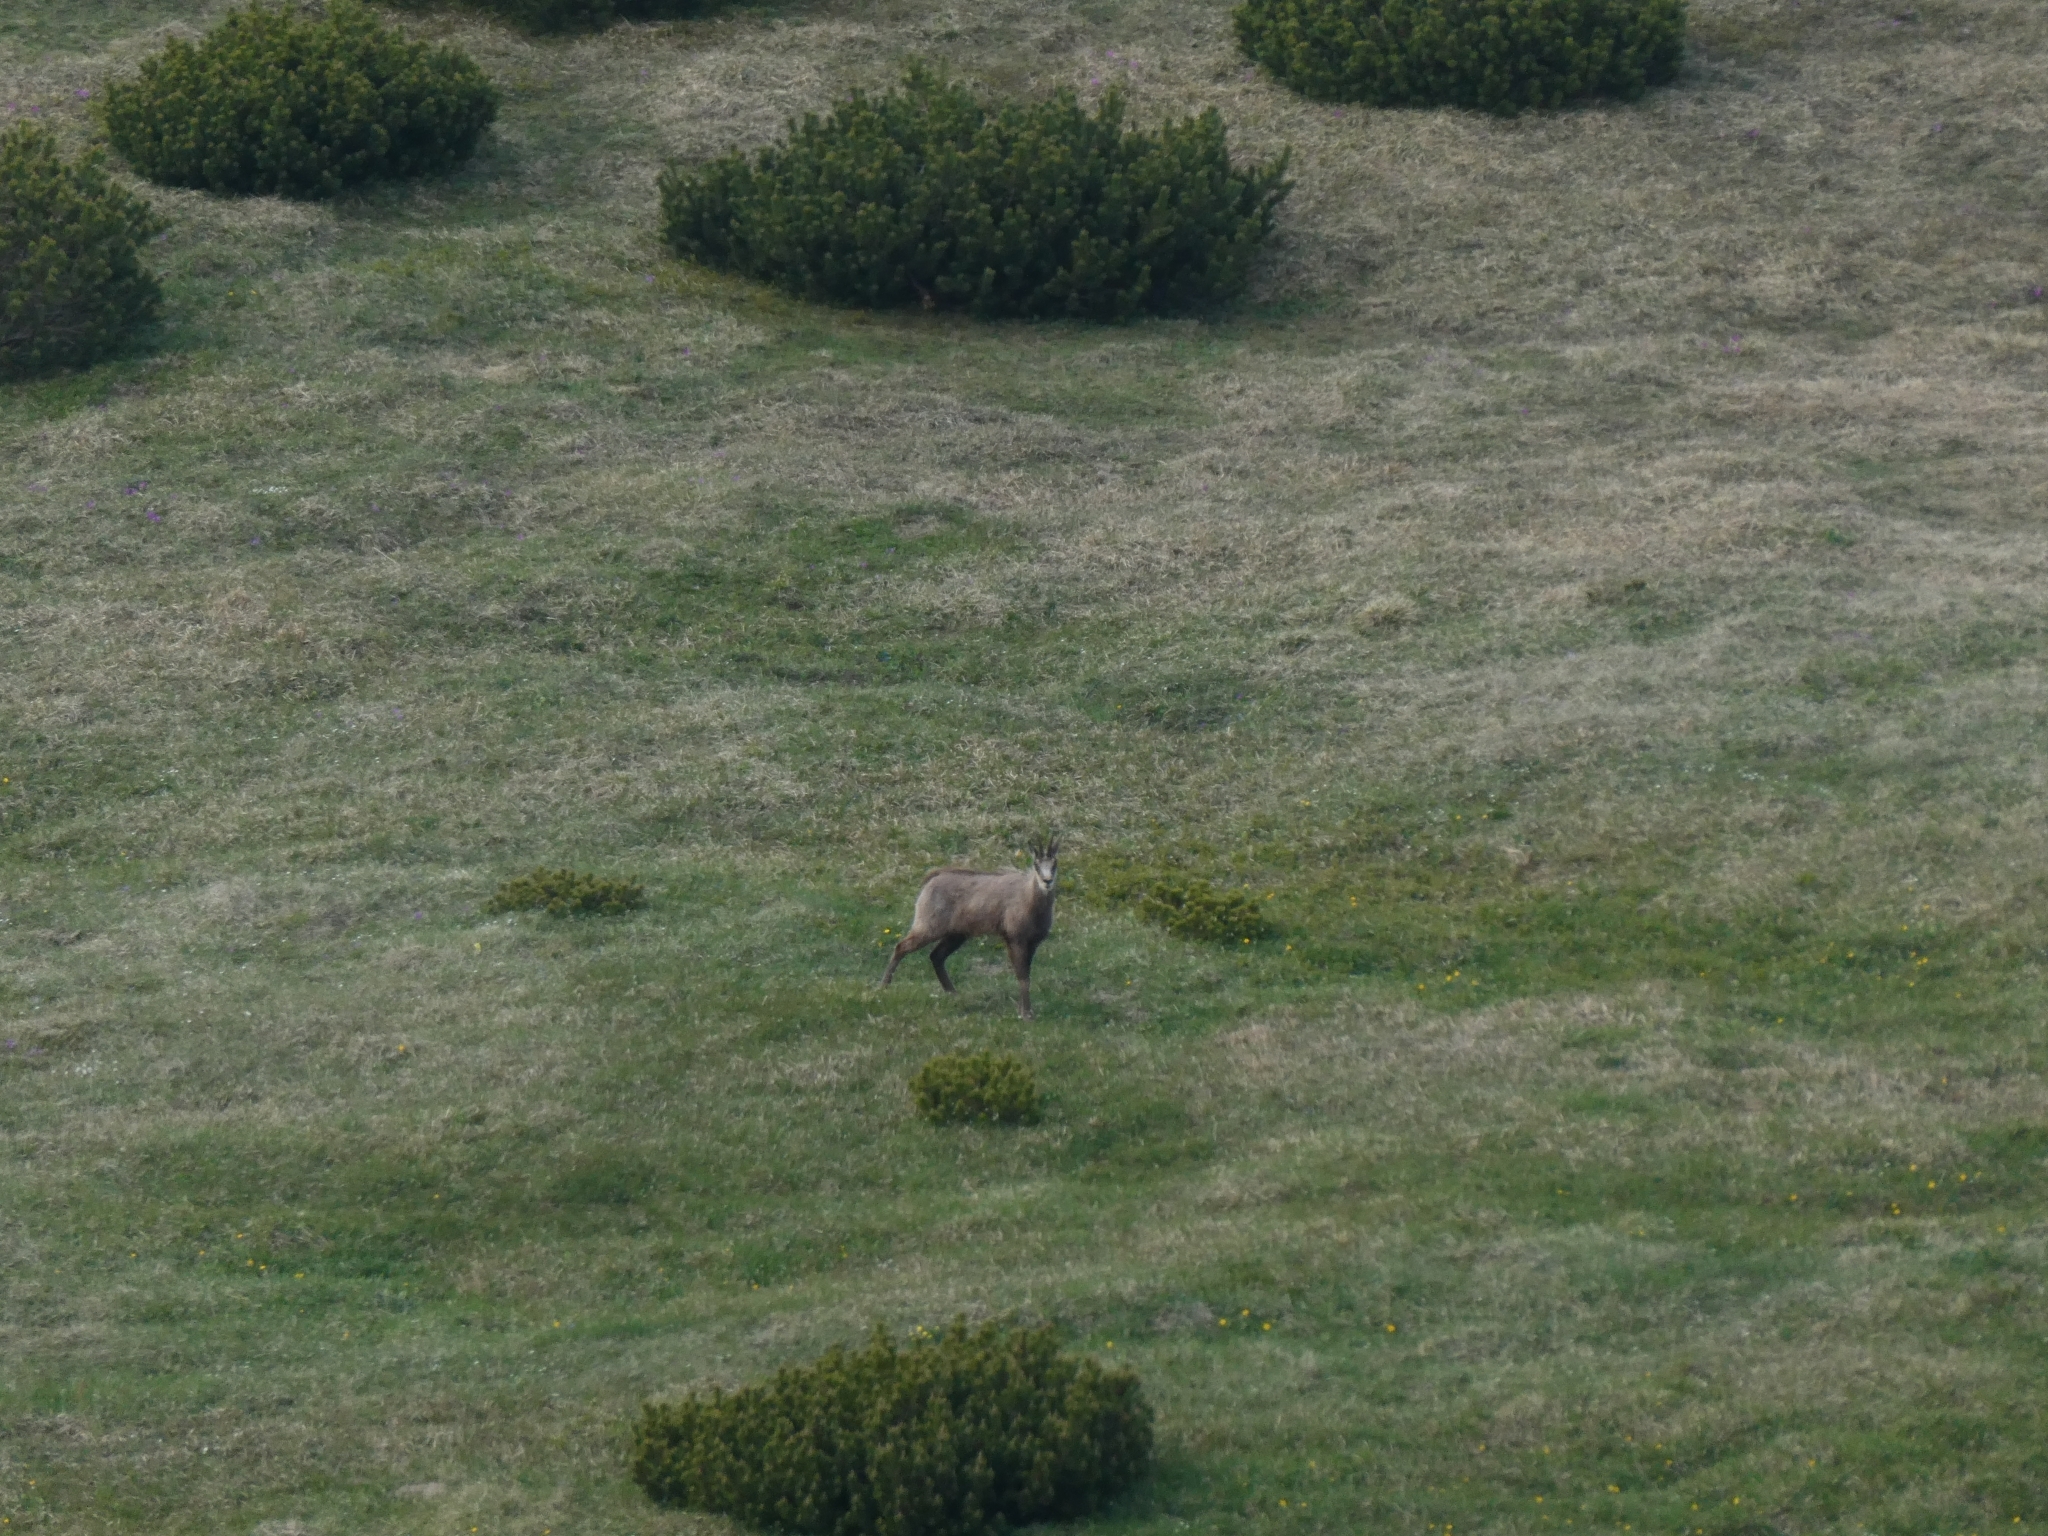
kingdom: Animalia
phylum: Chordata
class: Mammalia
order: Artiodactyla
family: Bovidae
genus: Rupicapra
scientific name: Rupicapra rupicapra
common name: Chamois
